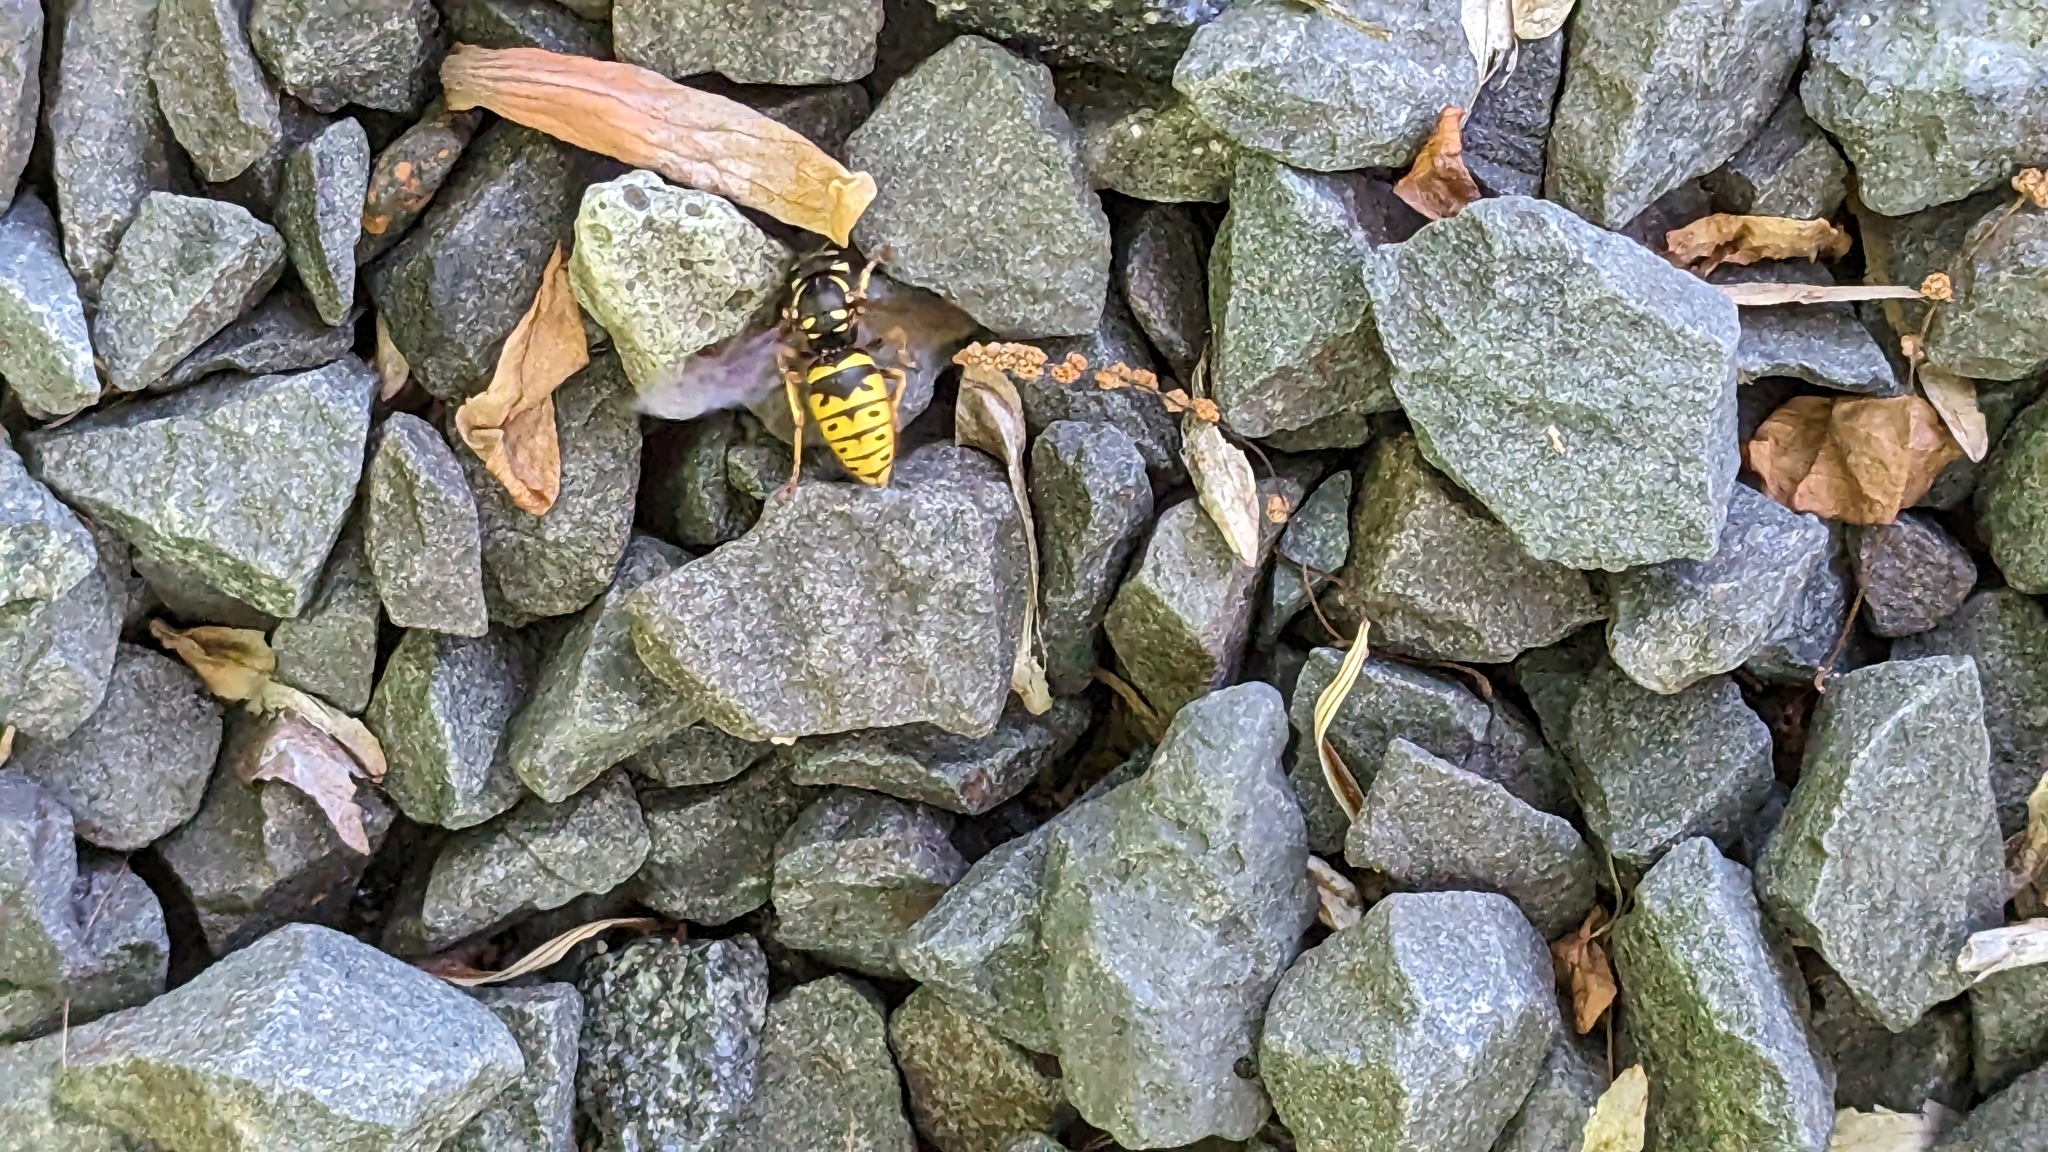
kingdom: Animalia
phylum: Arthropoda
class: Insecta
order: Hymenoptera
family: Vespidae
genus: Vespula
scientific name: Vespula flavopilosa
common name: Downy yellowjacket
